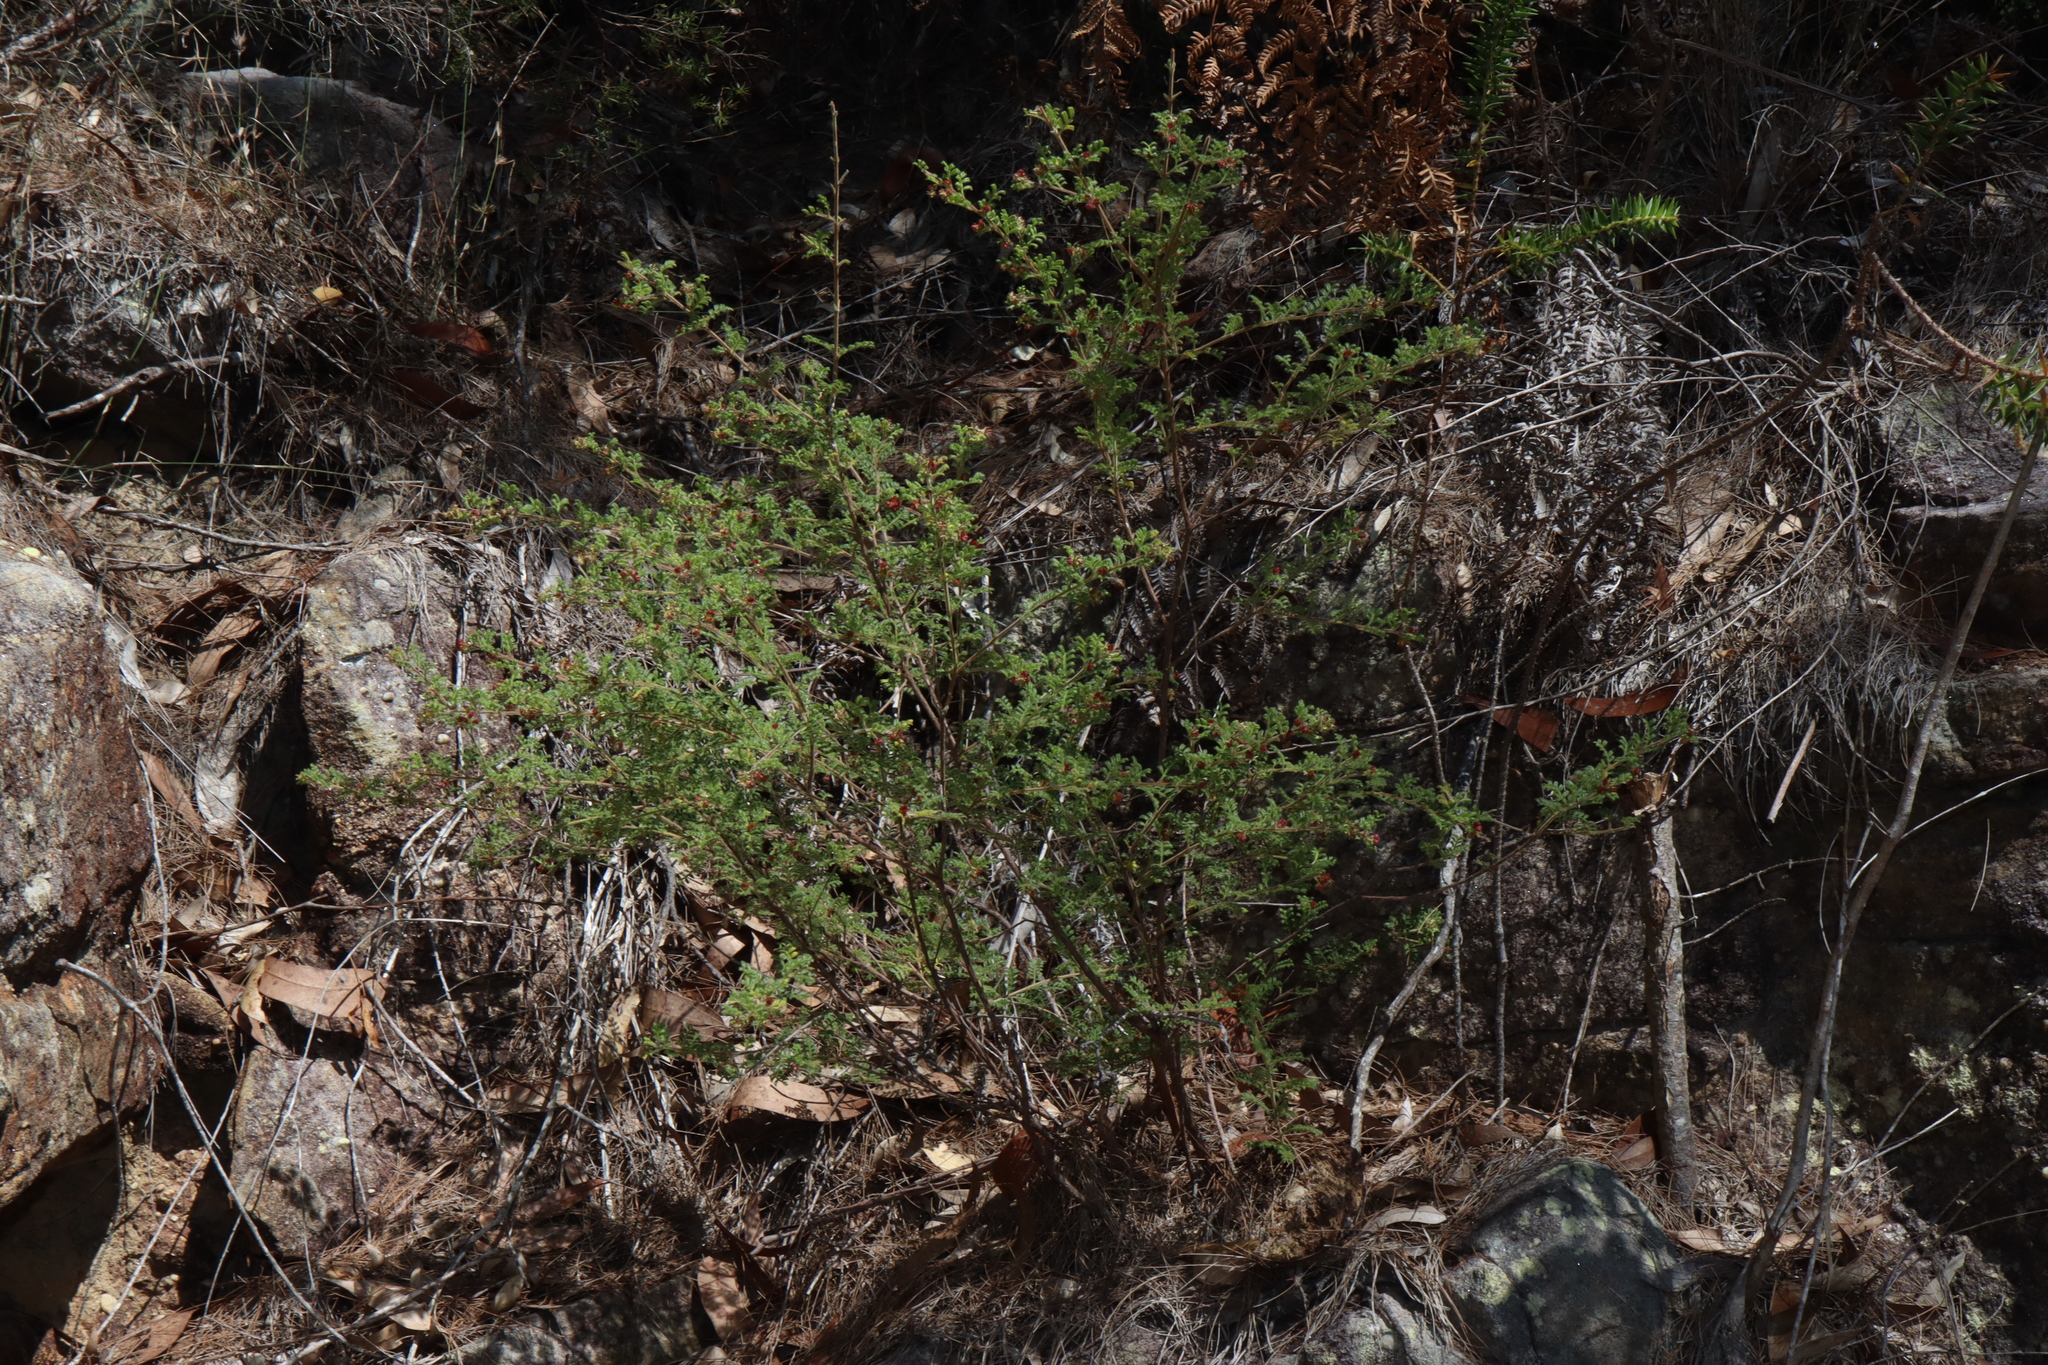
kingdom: Plantae
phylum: Tracheophyta
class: Magnoliopsida
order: Sapindales
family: Sapindaceae
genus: Dodonaea
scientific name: Dodonaea pinnata
